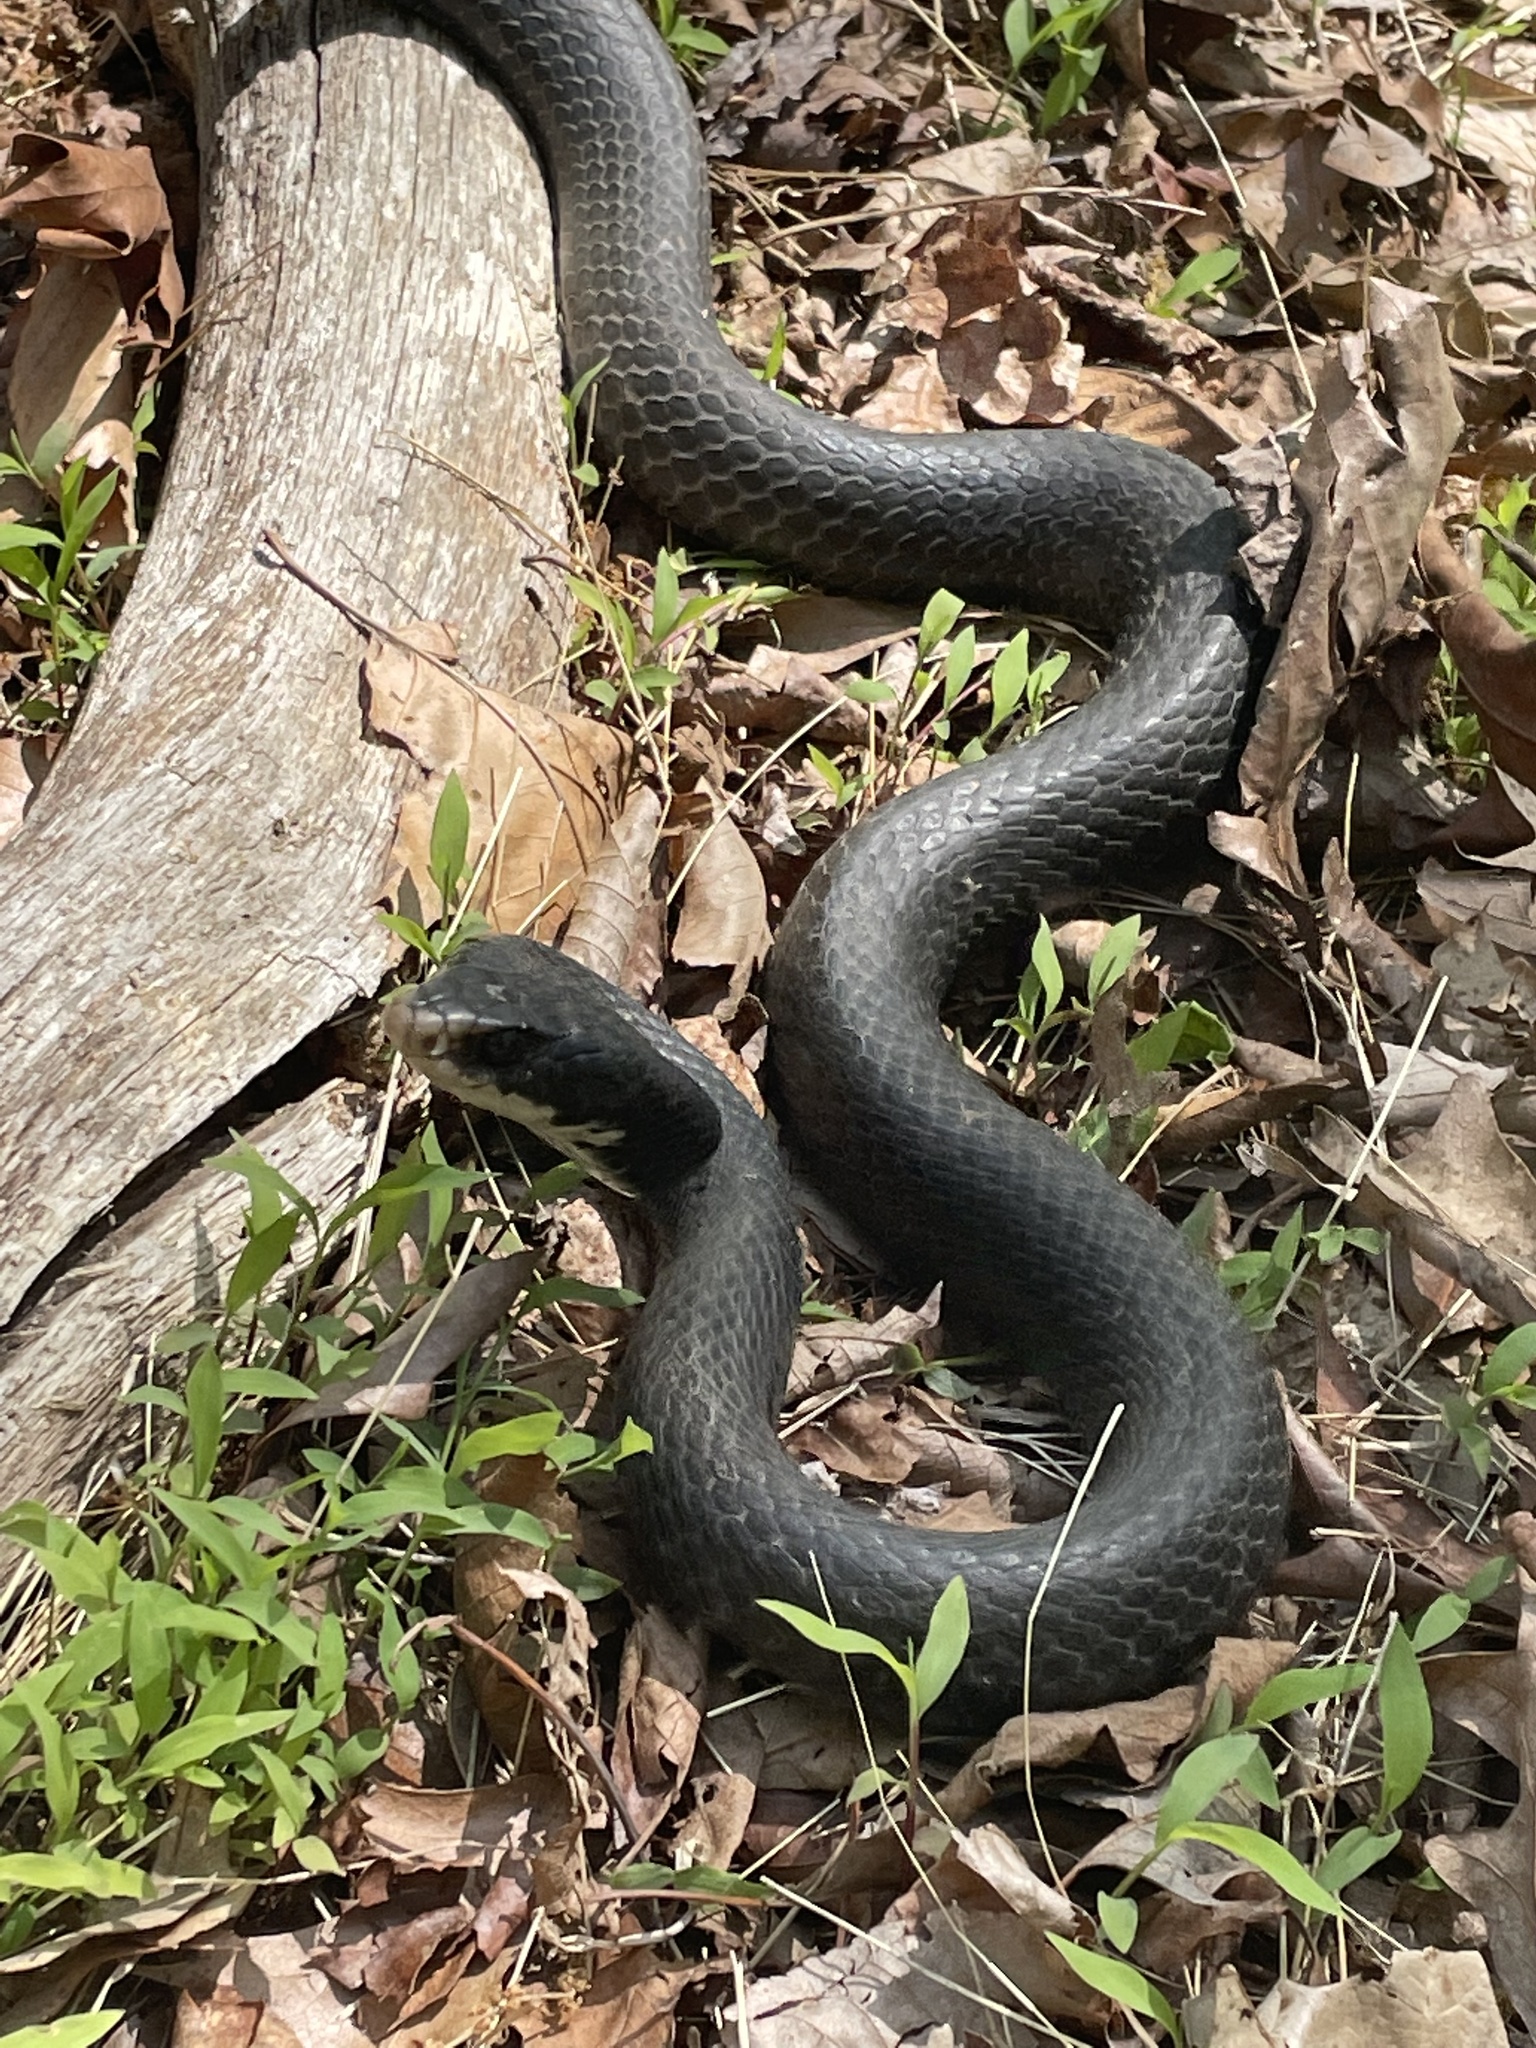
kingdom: Animalia
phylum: Chordata
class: Squamata
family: Colubridae
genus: Coluber
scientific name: Coluber constrictor
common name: Eastern racer
